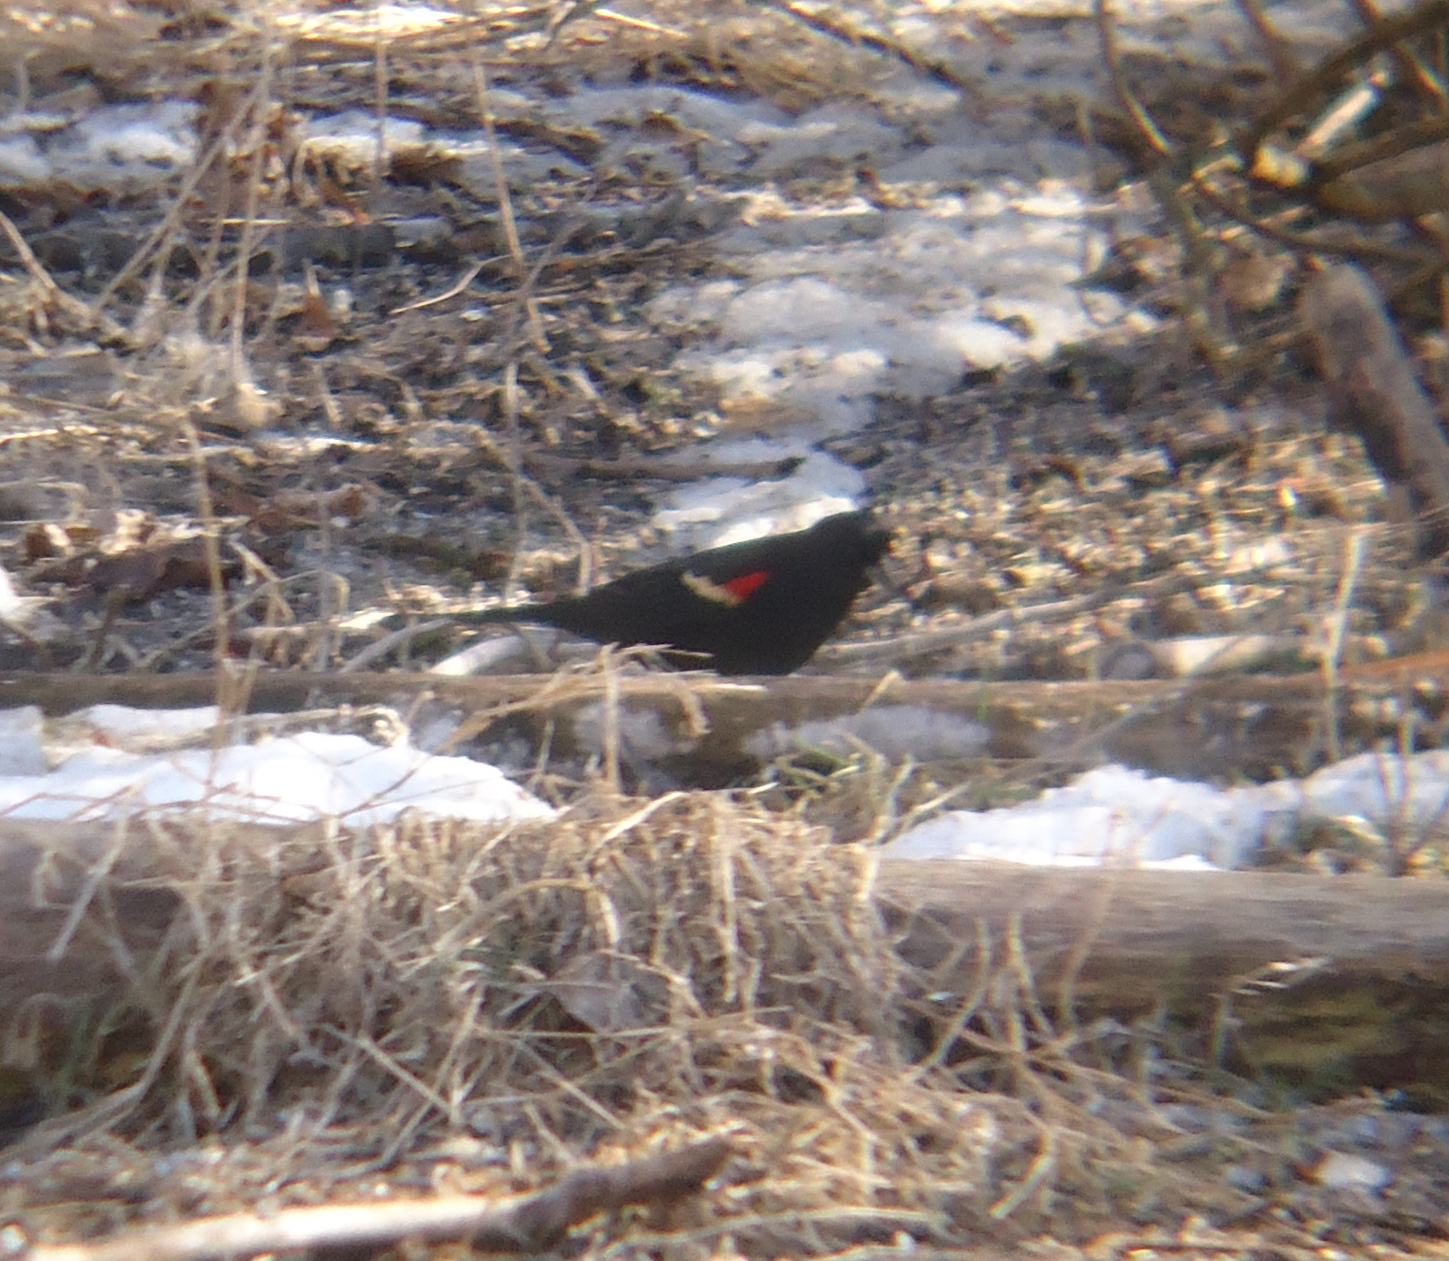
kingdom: Animalia
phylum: Chordata
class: Aves
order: Passeriformes
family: Icteridae
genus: Agelaius
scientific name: Agelaius phoeniceus
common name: Red-winged blackbird
